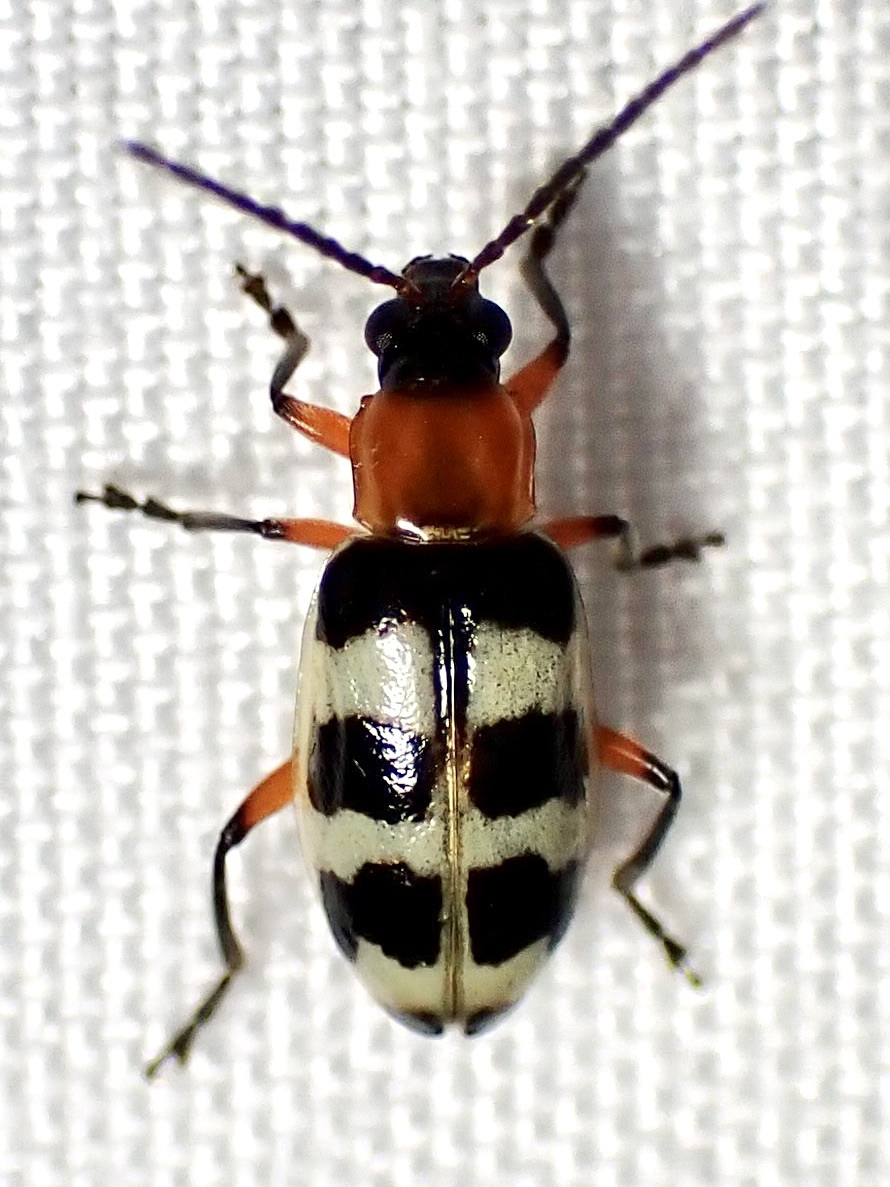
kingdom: Animalia
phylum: Arthropoda
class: Insecta
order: Coleoptera
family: Chrysomelidae
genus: Paranapiacaba
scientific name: Paranapiacaba tricincta
